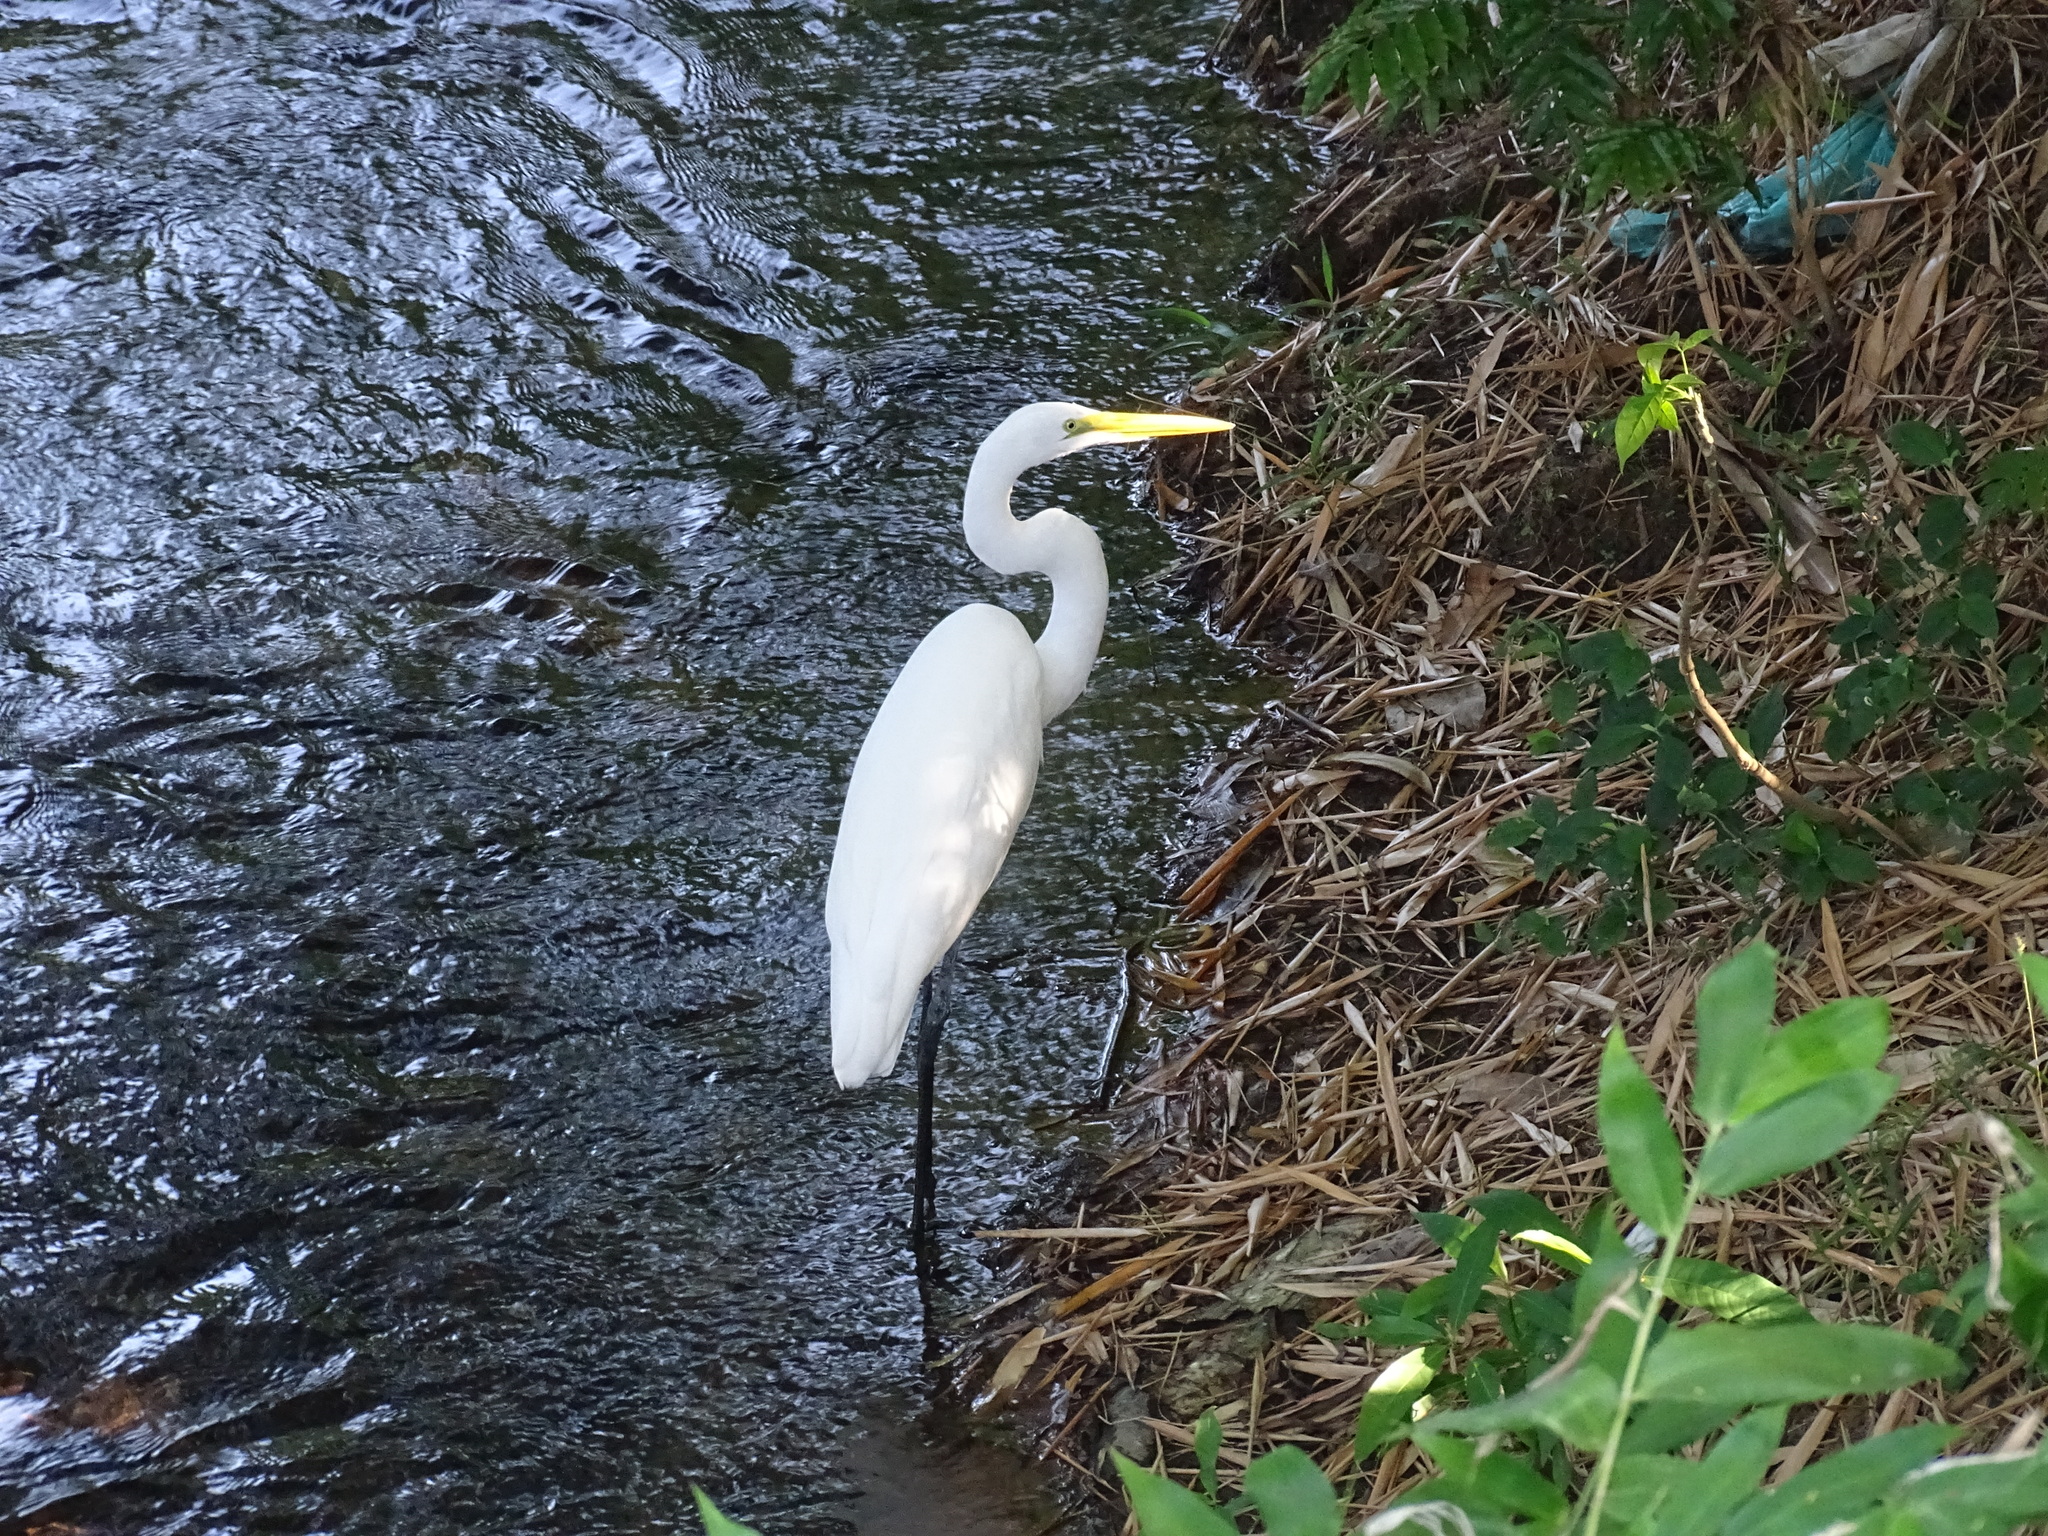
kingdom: Animalia
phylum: Chordata
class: Aves
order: Pelecaniformes
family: Ardeidae
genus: Ardea
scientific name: Ardea alba
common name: Great egret
